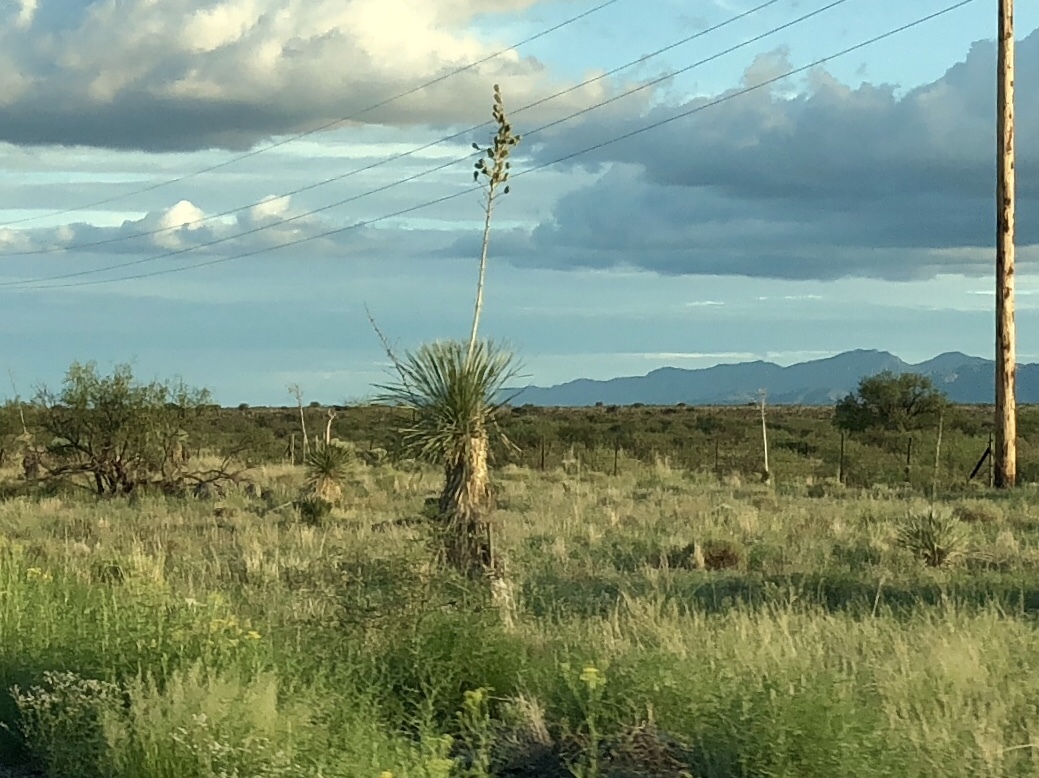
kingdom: Plantae
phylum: Tracheophyta
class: Liliopsida
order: Asparagales
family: Asparagaceae
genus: Yucca
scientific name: Yucca elata
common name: Palmella
